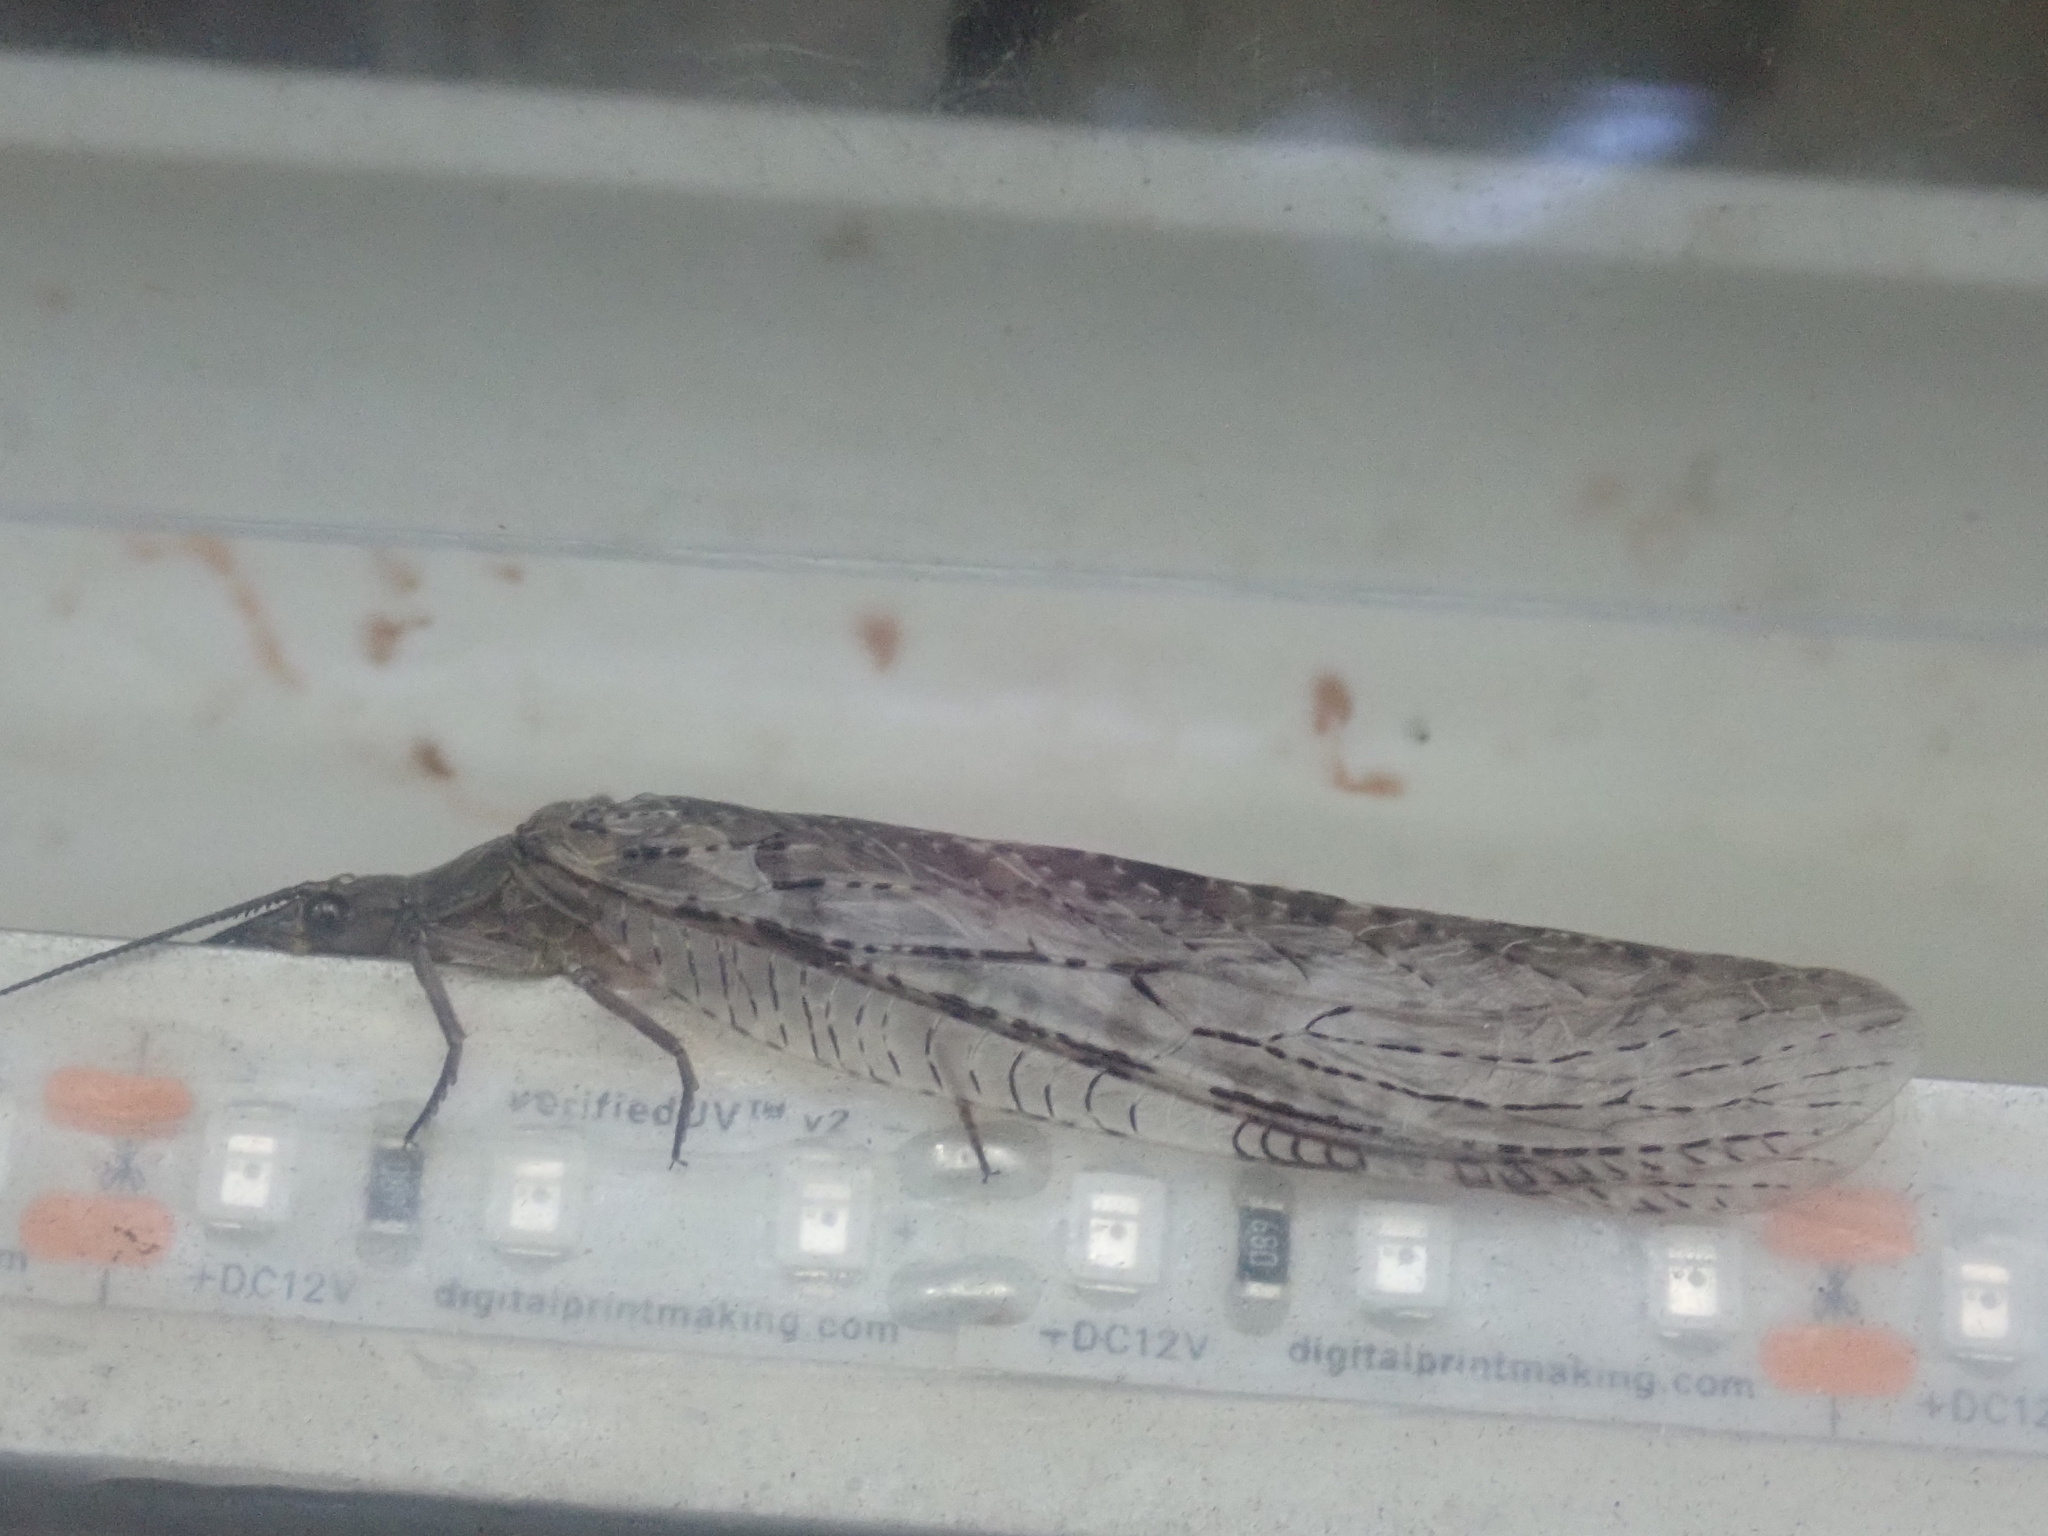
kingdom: Animalia
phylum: Arthropoda
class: Insecta
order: Megaloptera
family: Corydalidae
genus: Chauliodes
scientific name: Chauliodes pectinicornis
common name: Summer fishfly
